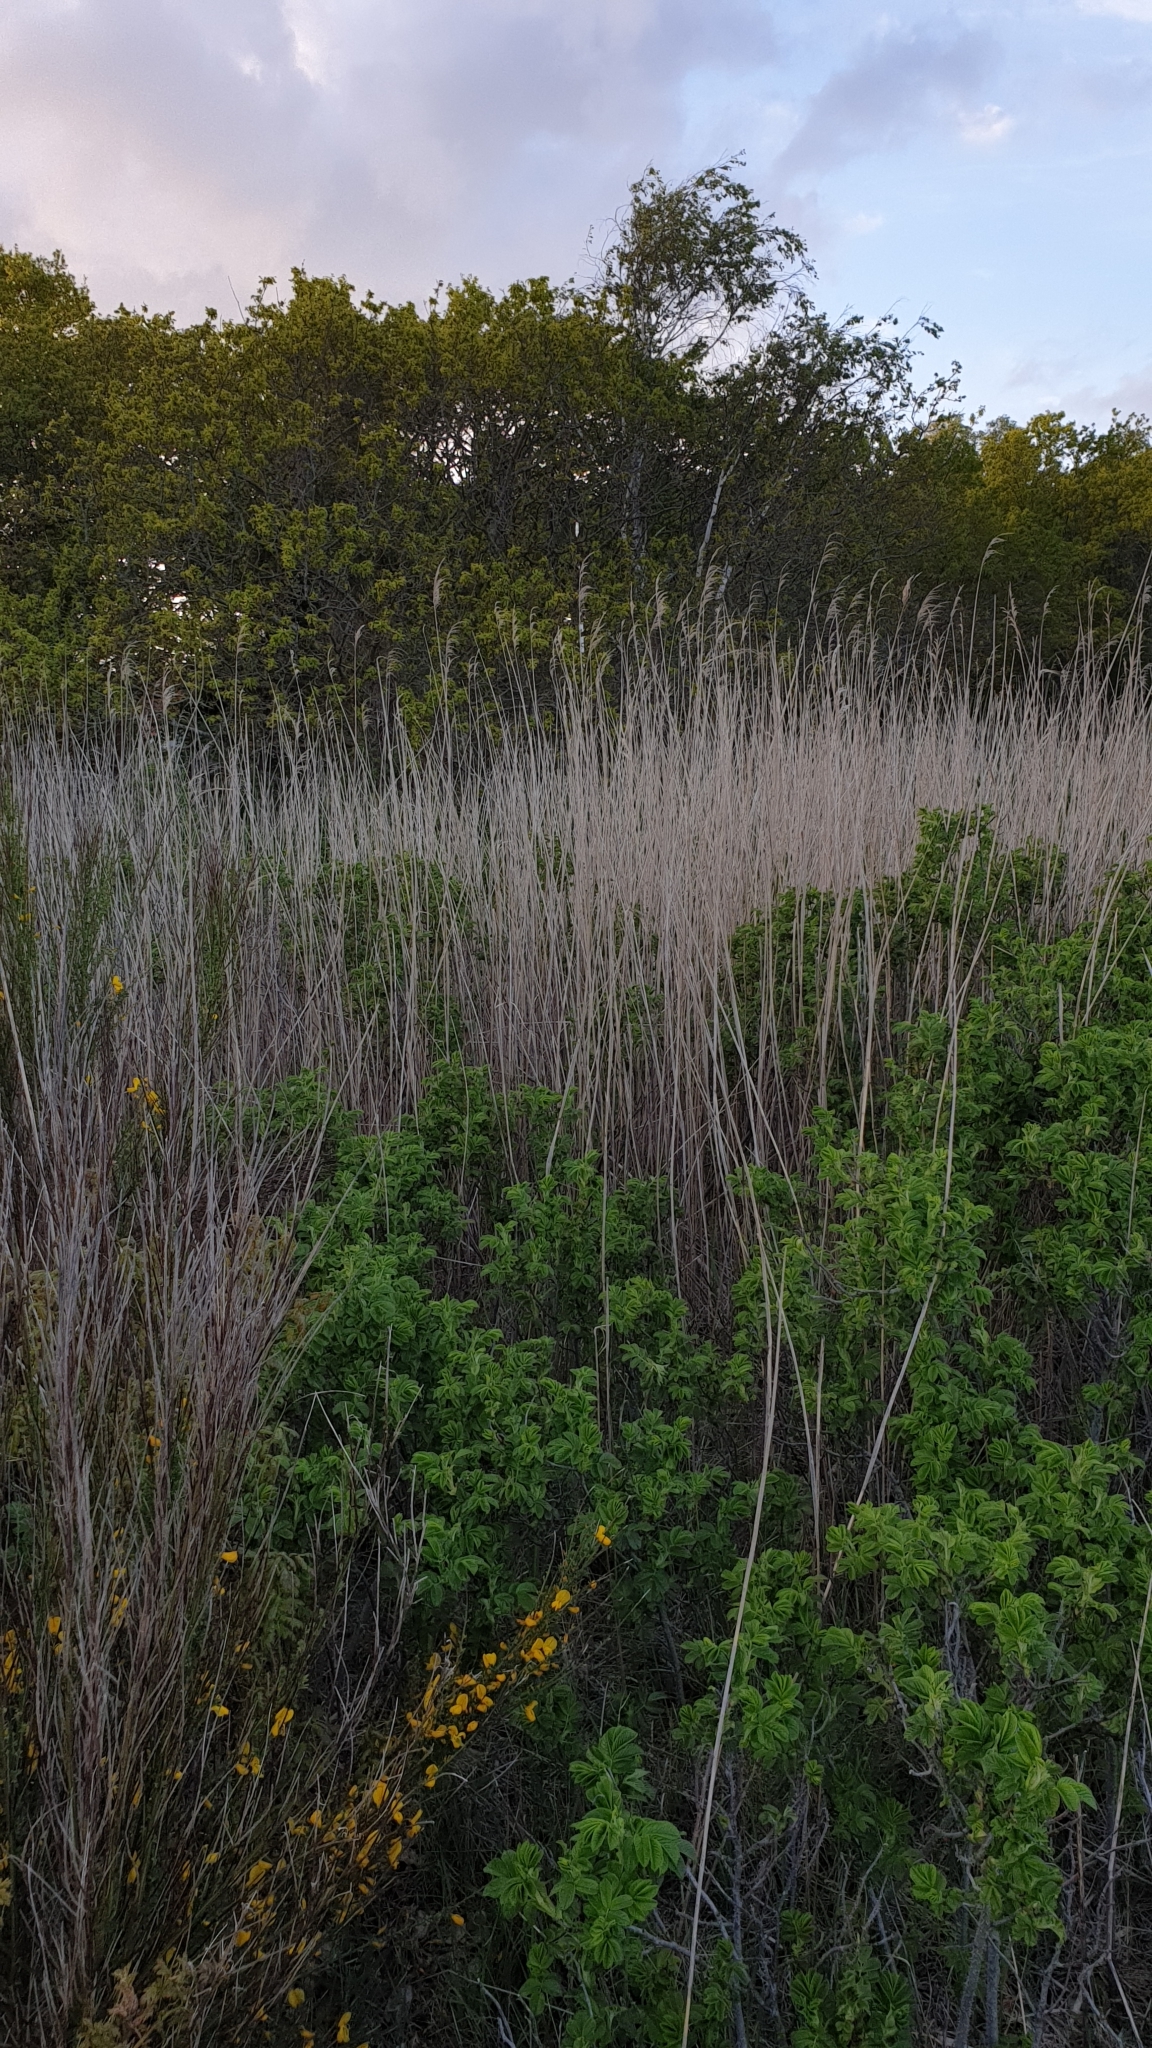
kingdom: Plantae
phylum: Tracheophyta
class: Liliopsida
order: Poales
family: Poaceae
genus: Phragmites
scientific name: Phragmites australis
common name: Common reed
